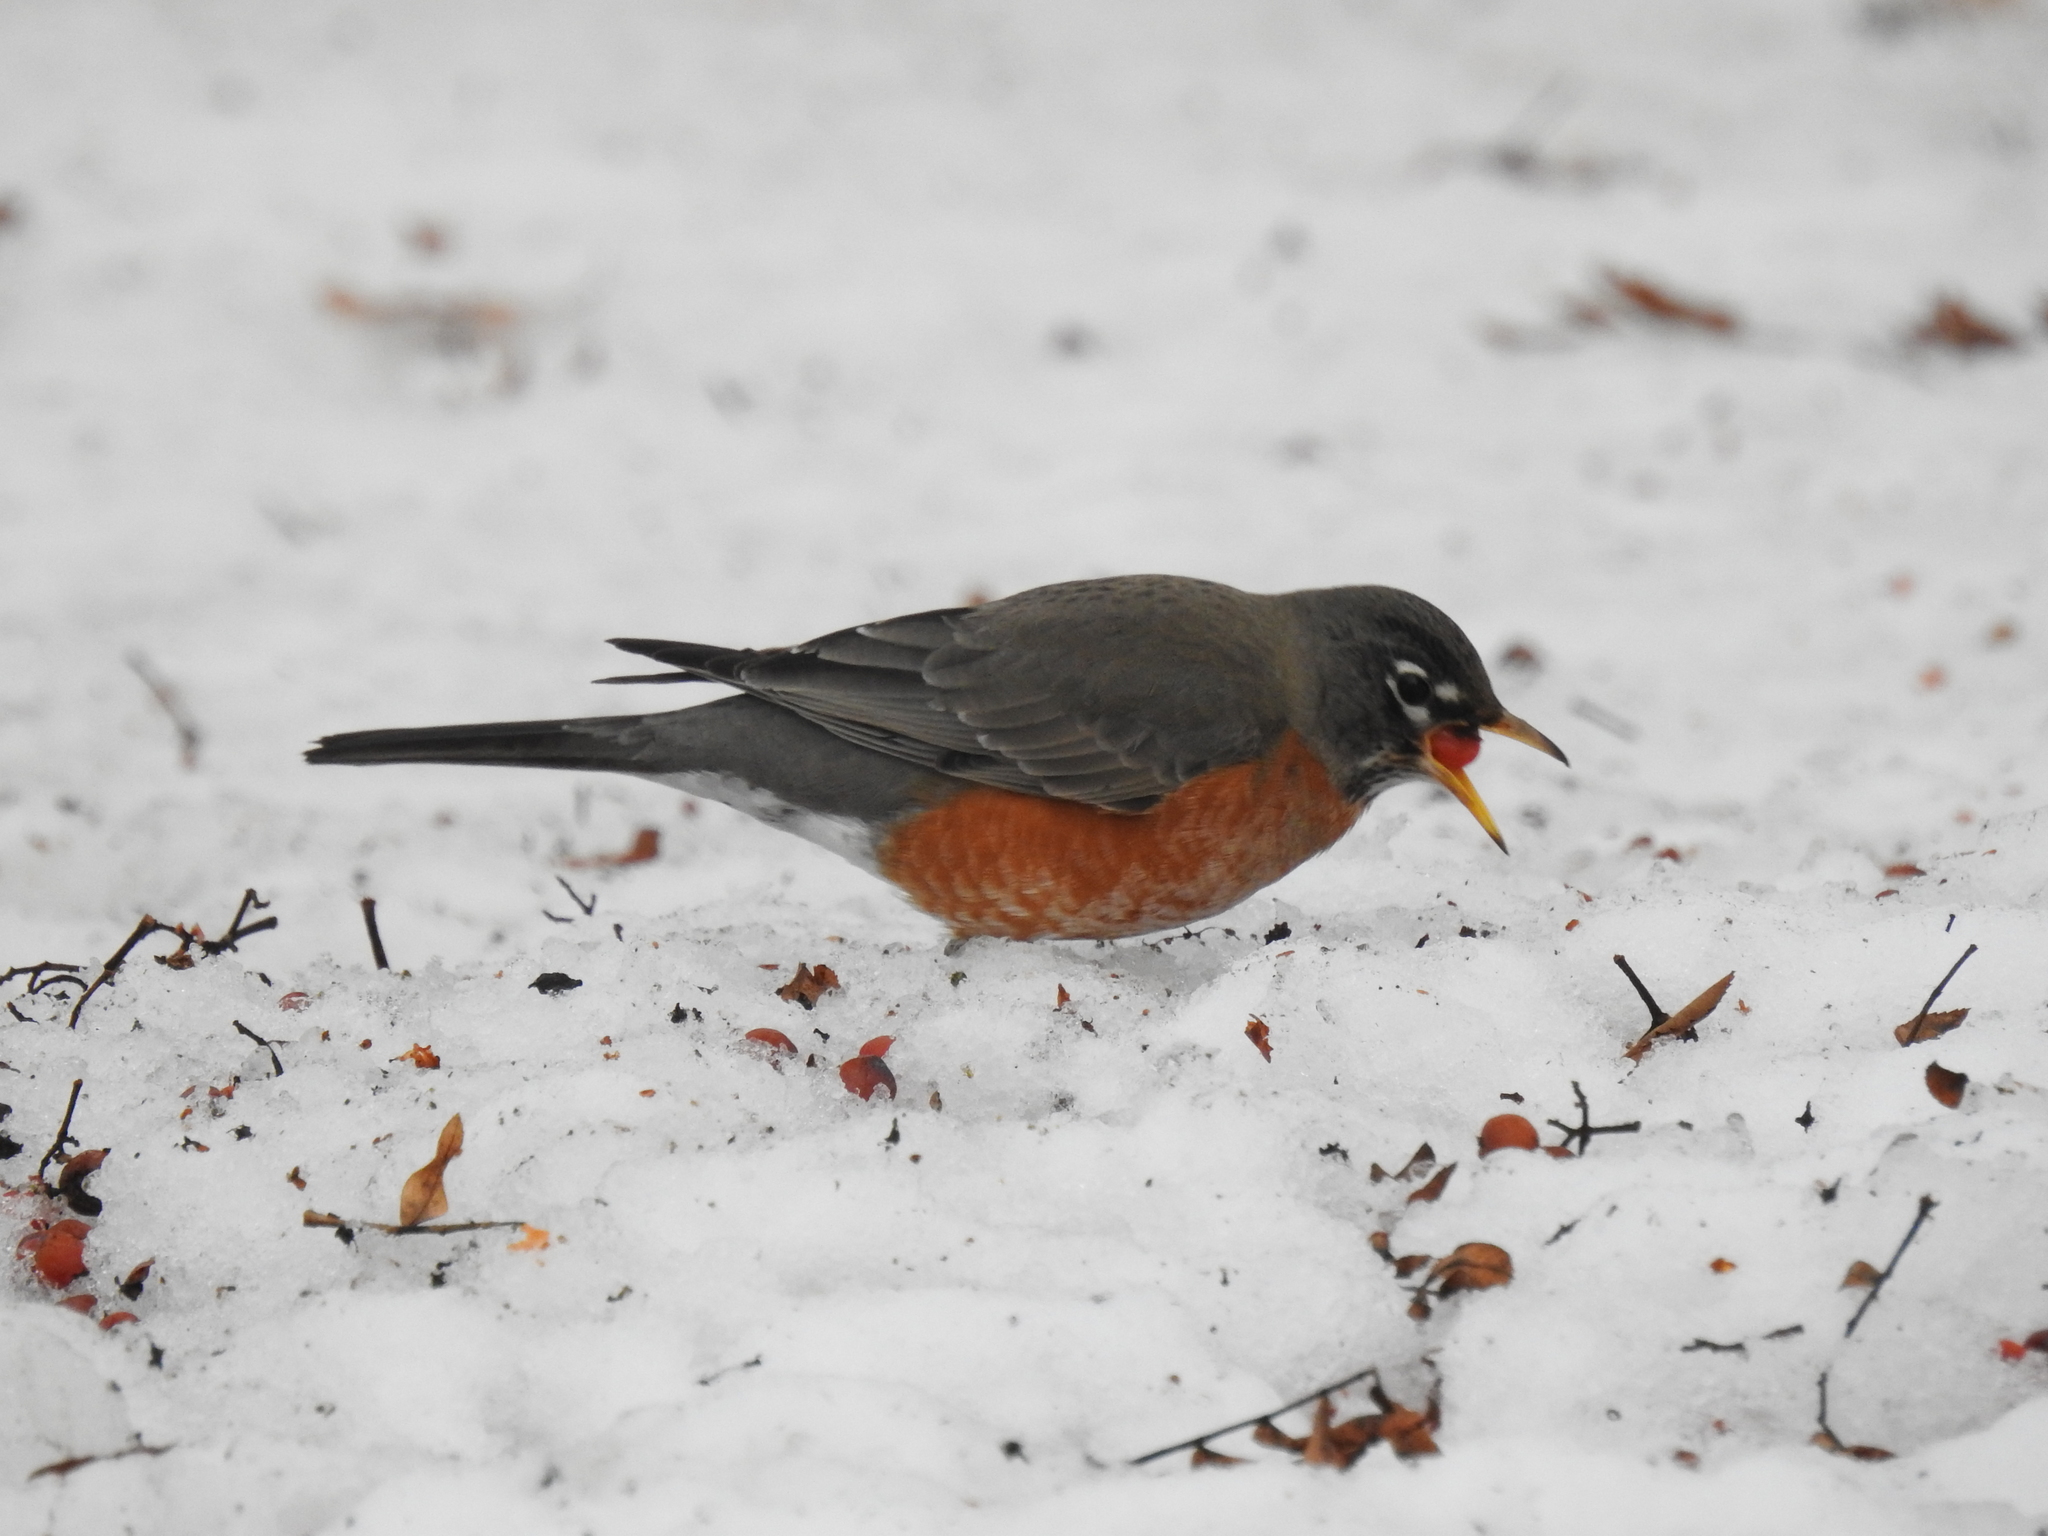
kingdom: Animalia
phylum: Chordata
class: Aves
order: Passeriformes
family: Turdidae
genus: Turdus
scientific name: Turdus migratorius
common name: American robin
